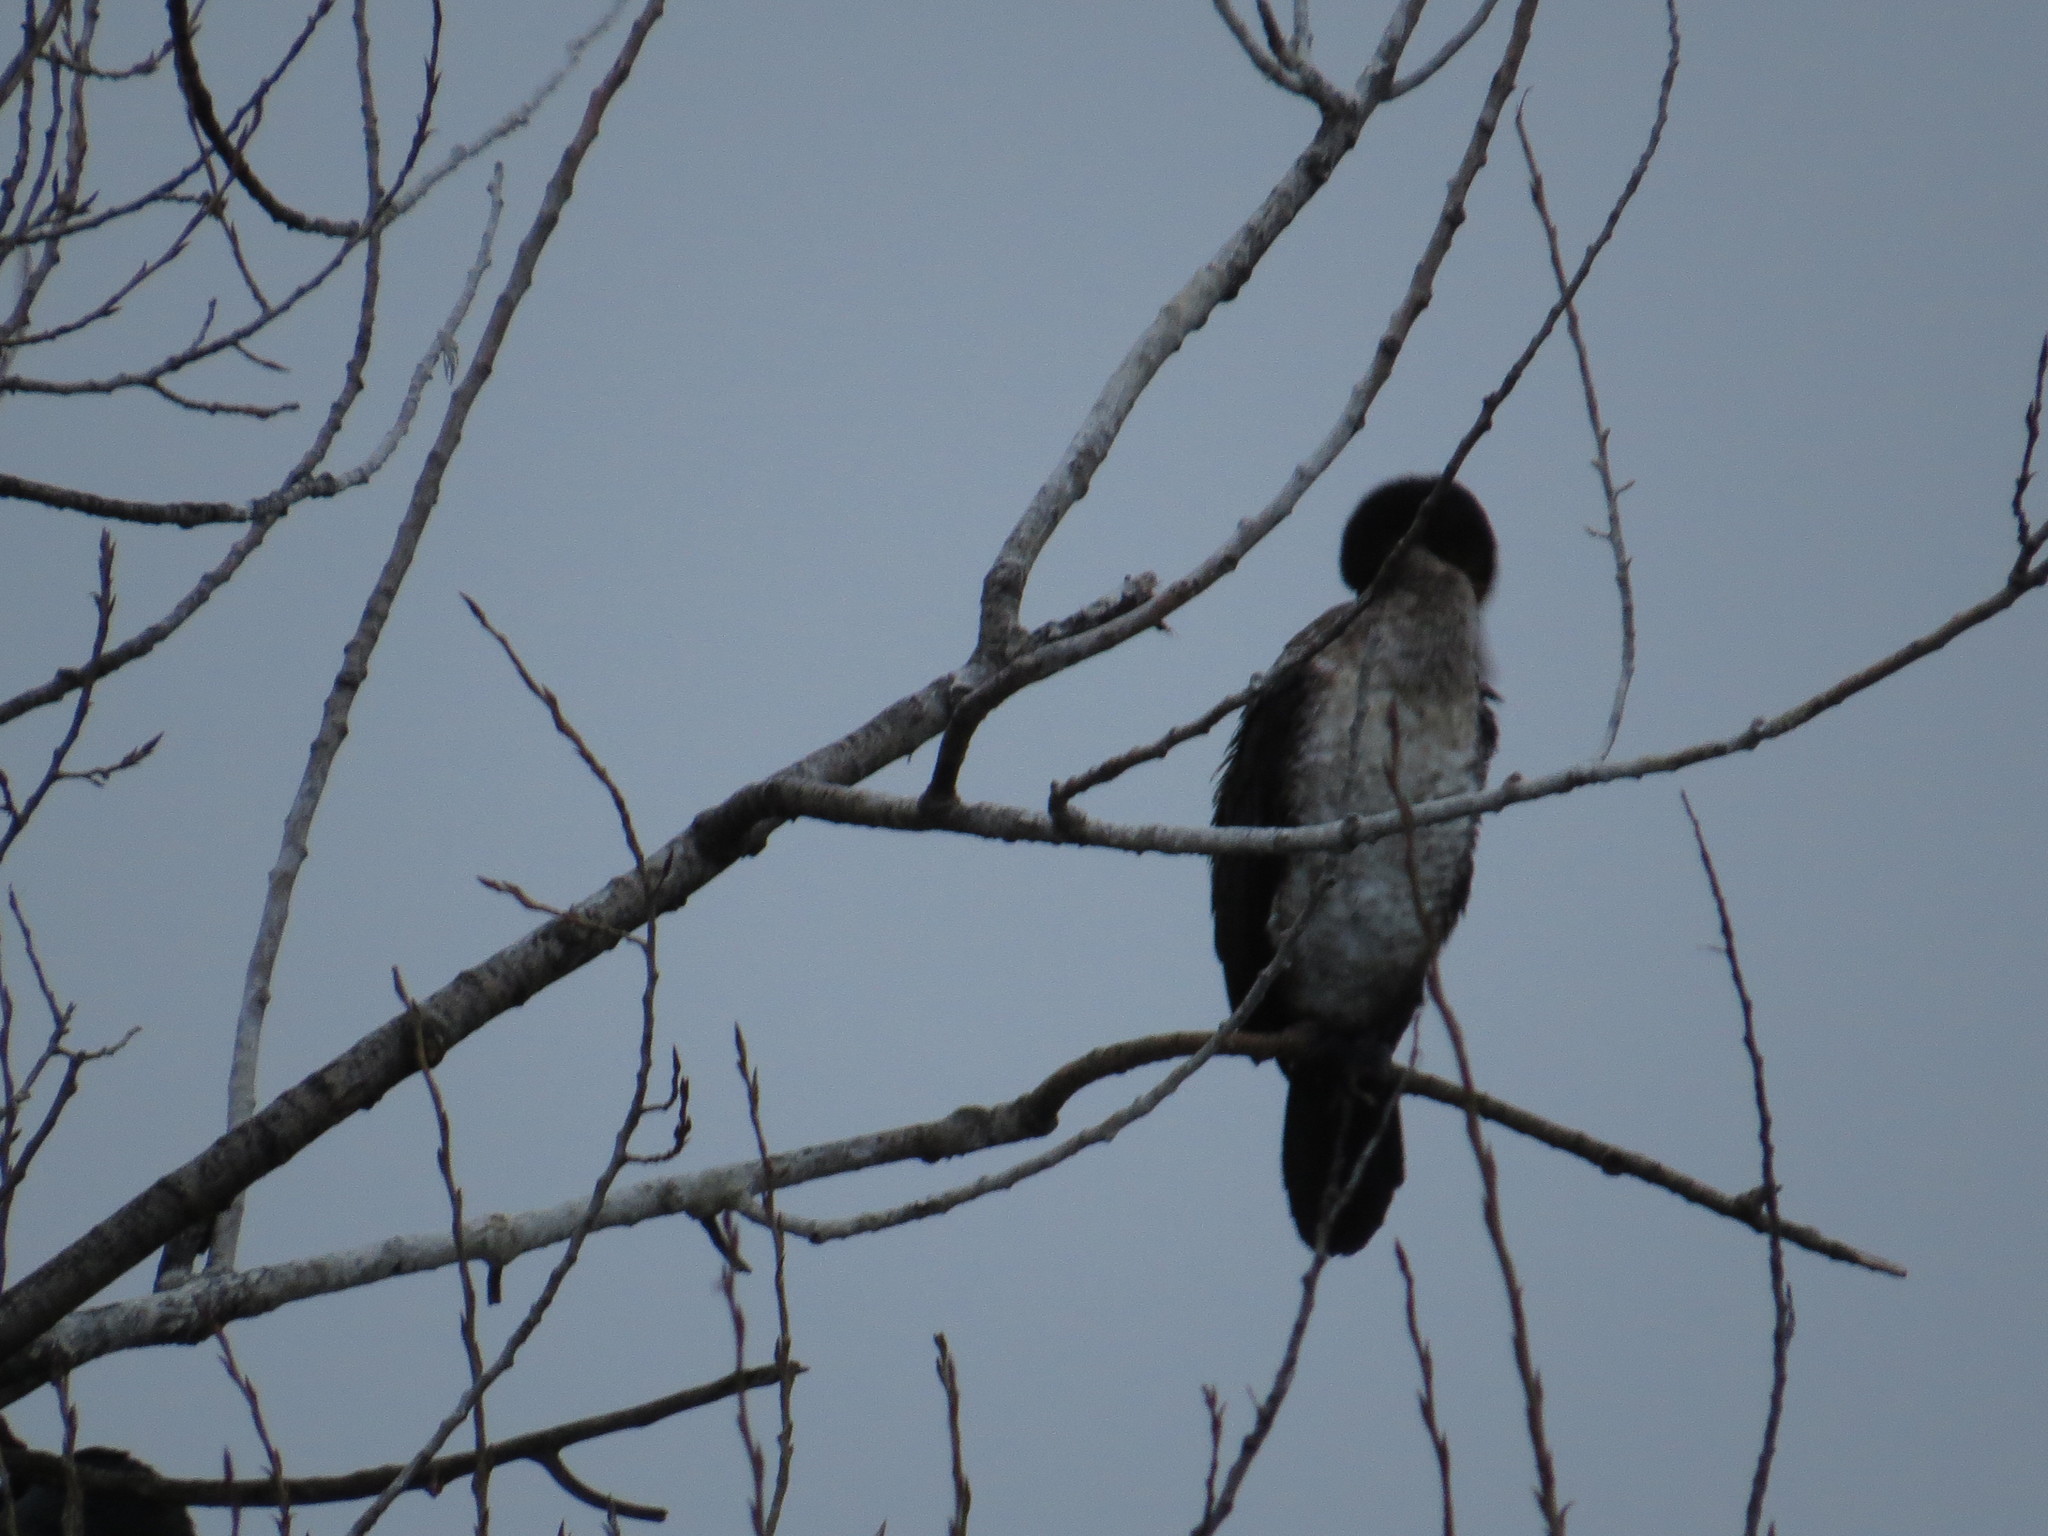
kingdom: Animalia
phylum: Chordata
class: Aves
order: Suliformes
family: Phalacrocoracidae
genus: Phalacrocorax
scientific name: Phalacrocorax carbo
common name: Great cormorant
